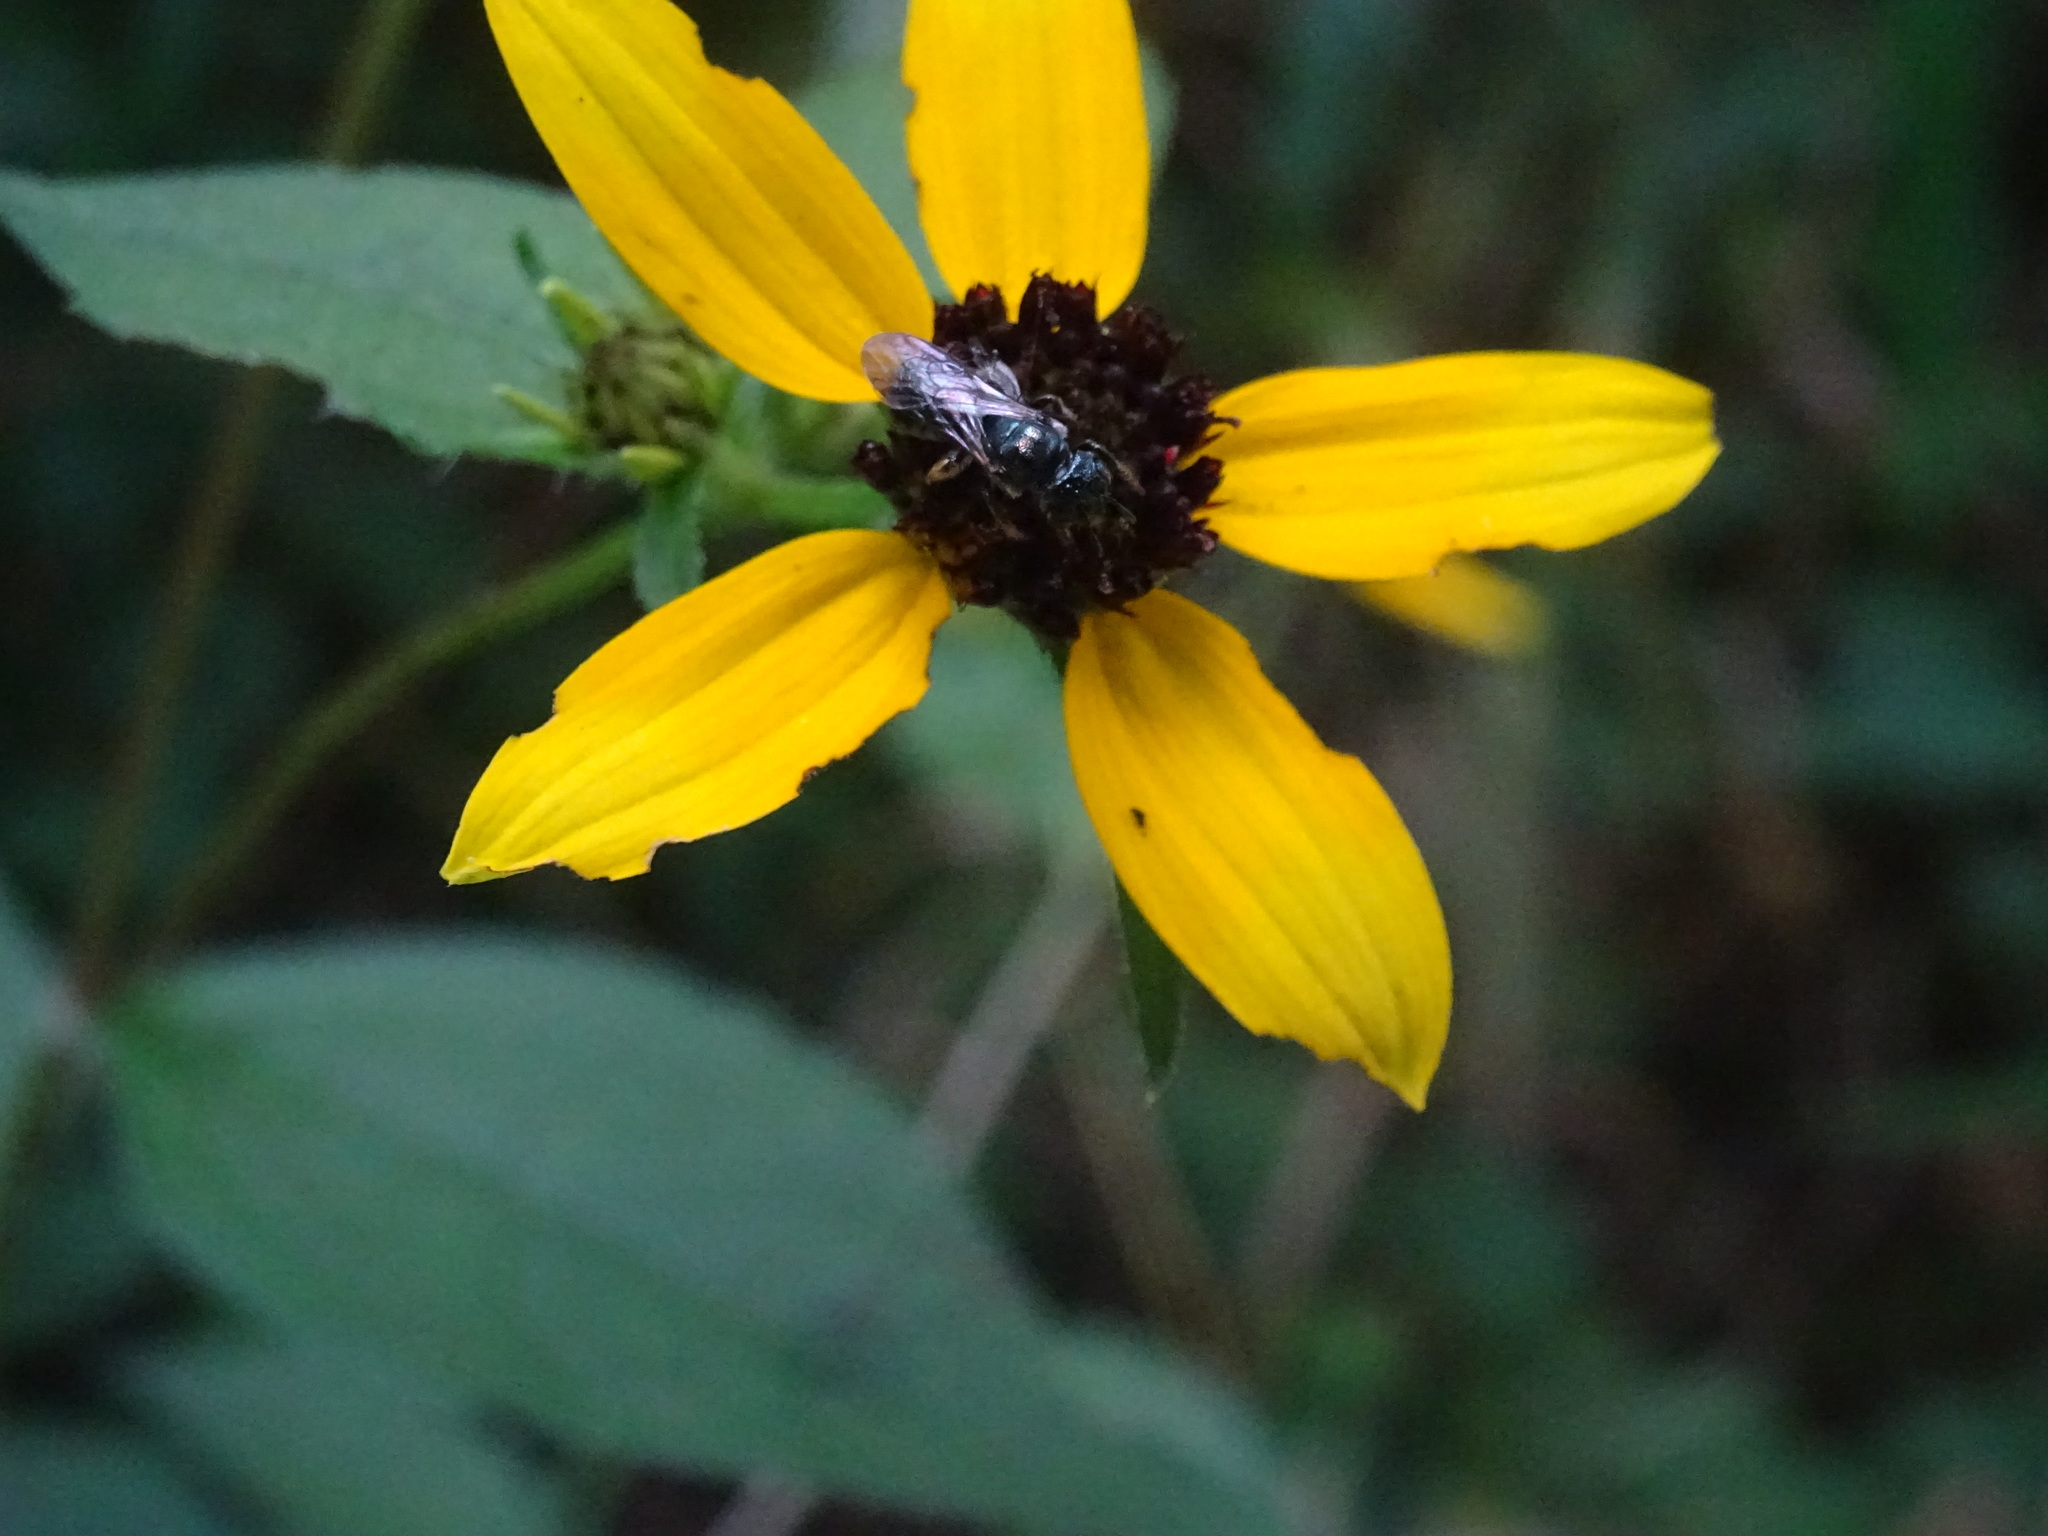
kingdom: Plantae
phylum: Tracheophyta
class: Magnoliopsida
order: Asterales
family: Asteraceae
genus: Rudbeckia
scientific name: Rudbeckia triloba
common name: Thin-leaved coneflower
